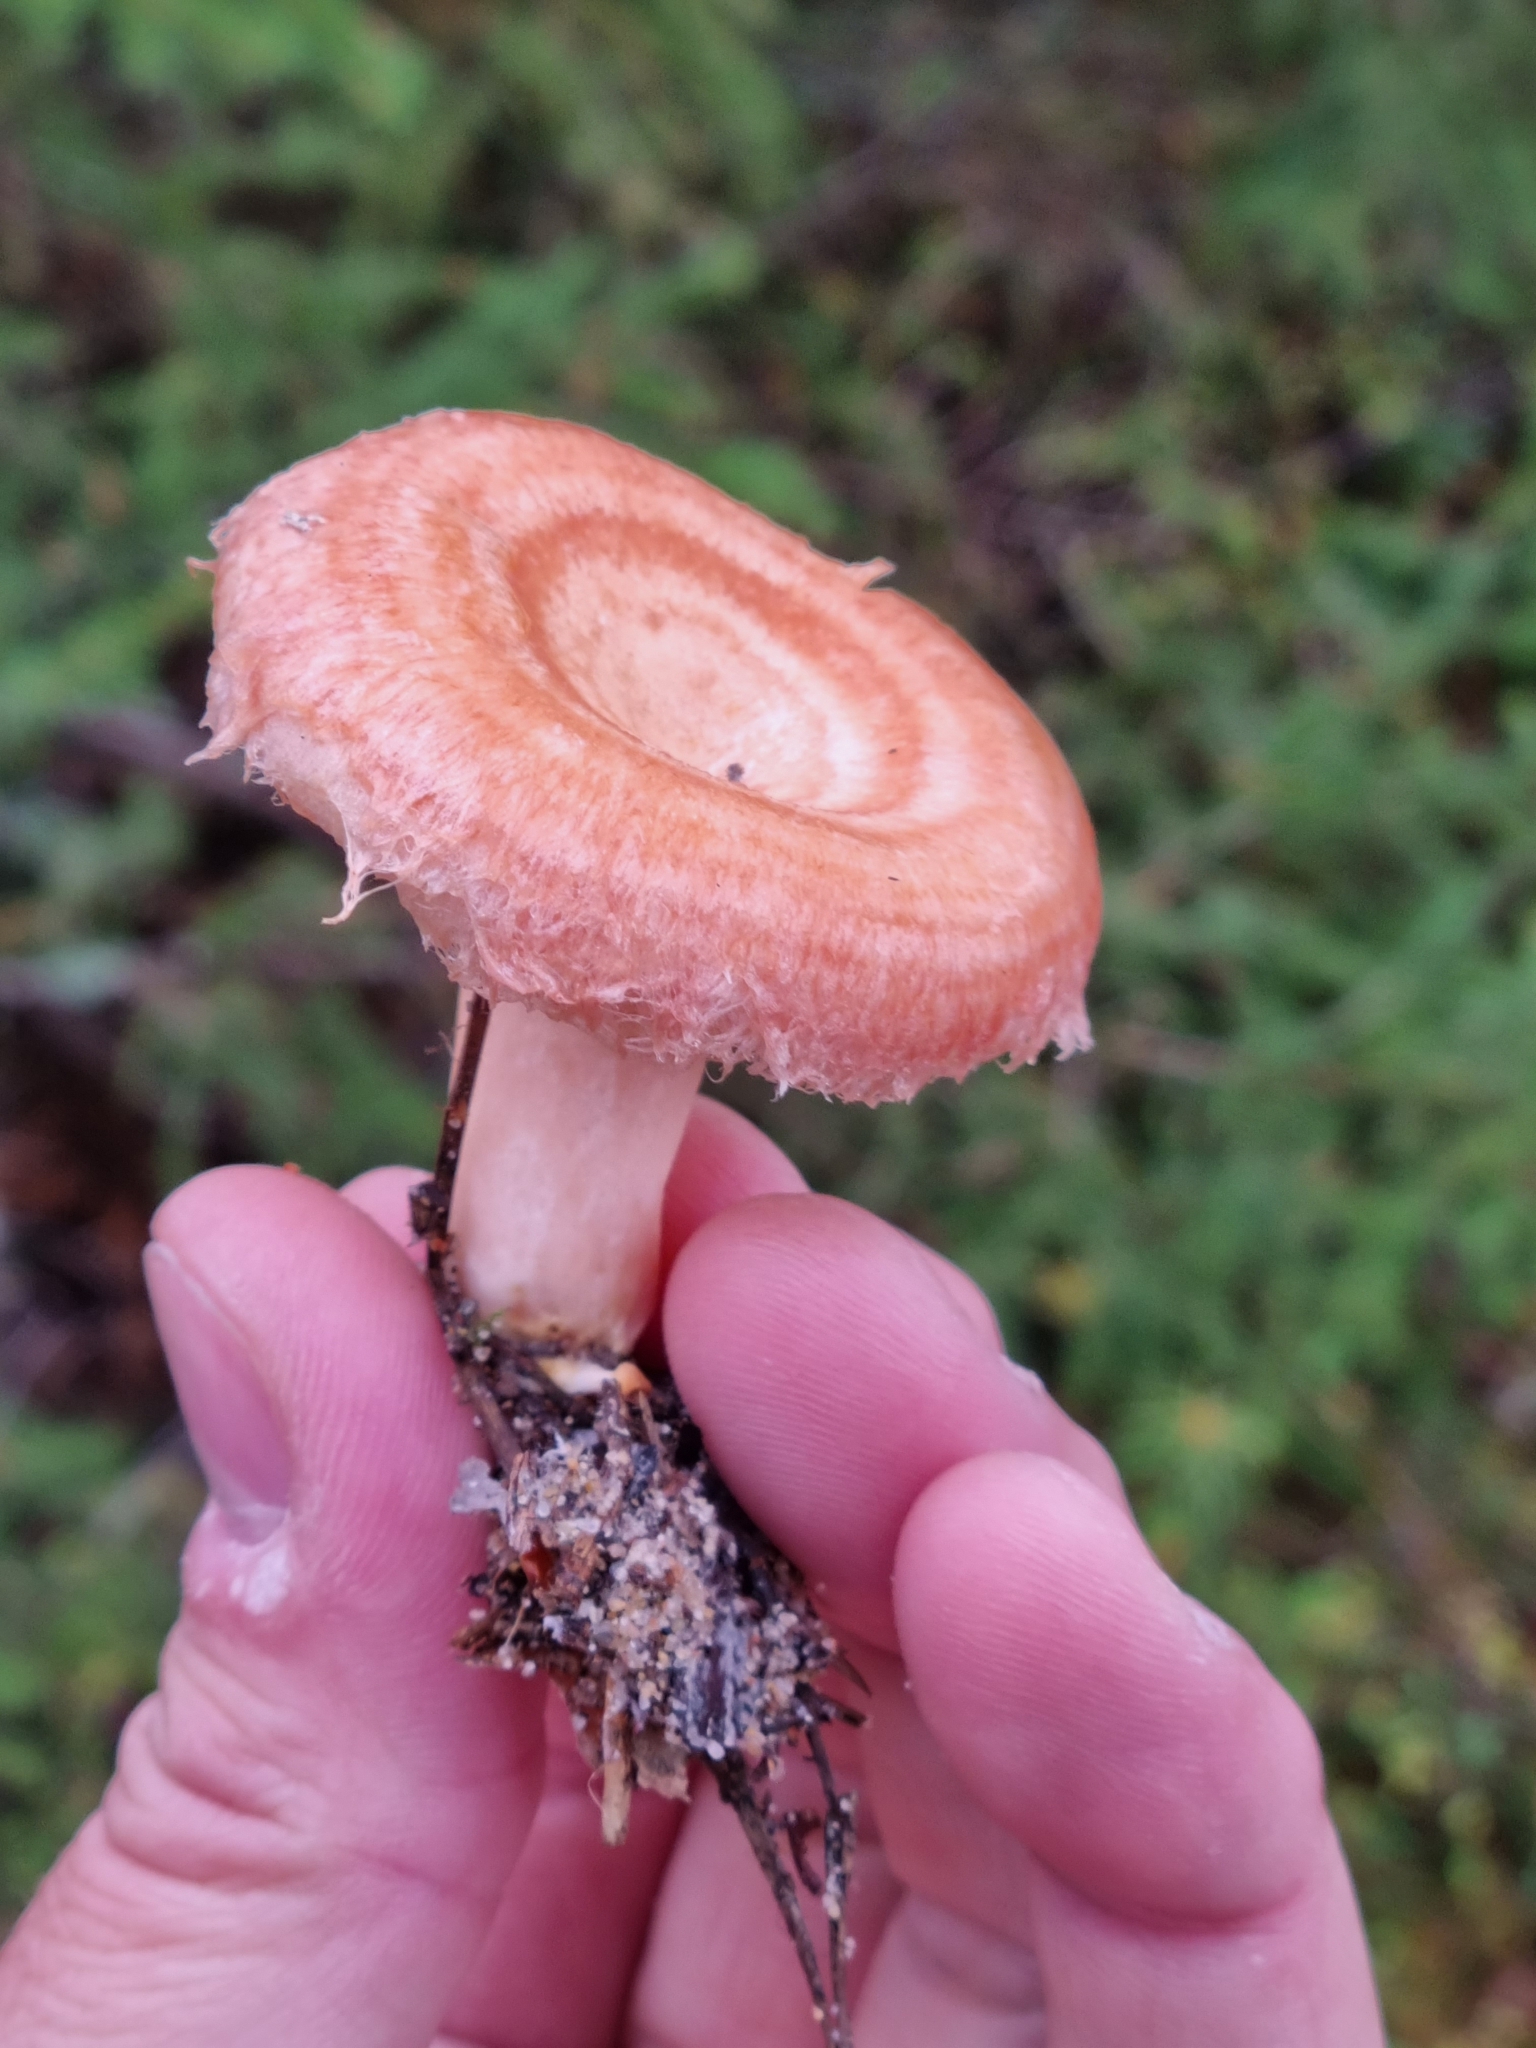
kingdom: Fungi
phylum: Basidiomycota
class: Agaricomycetes
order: Russulales
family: Russulaceae
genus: Lactarius
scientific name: Lactarius torminosus
